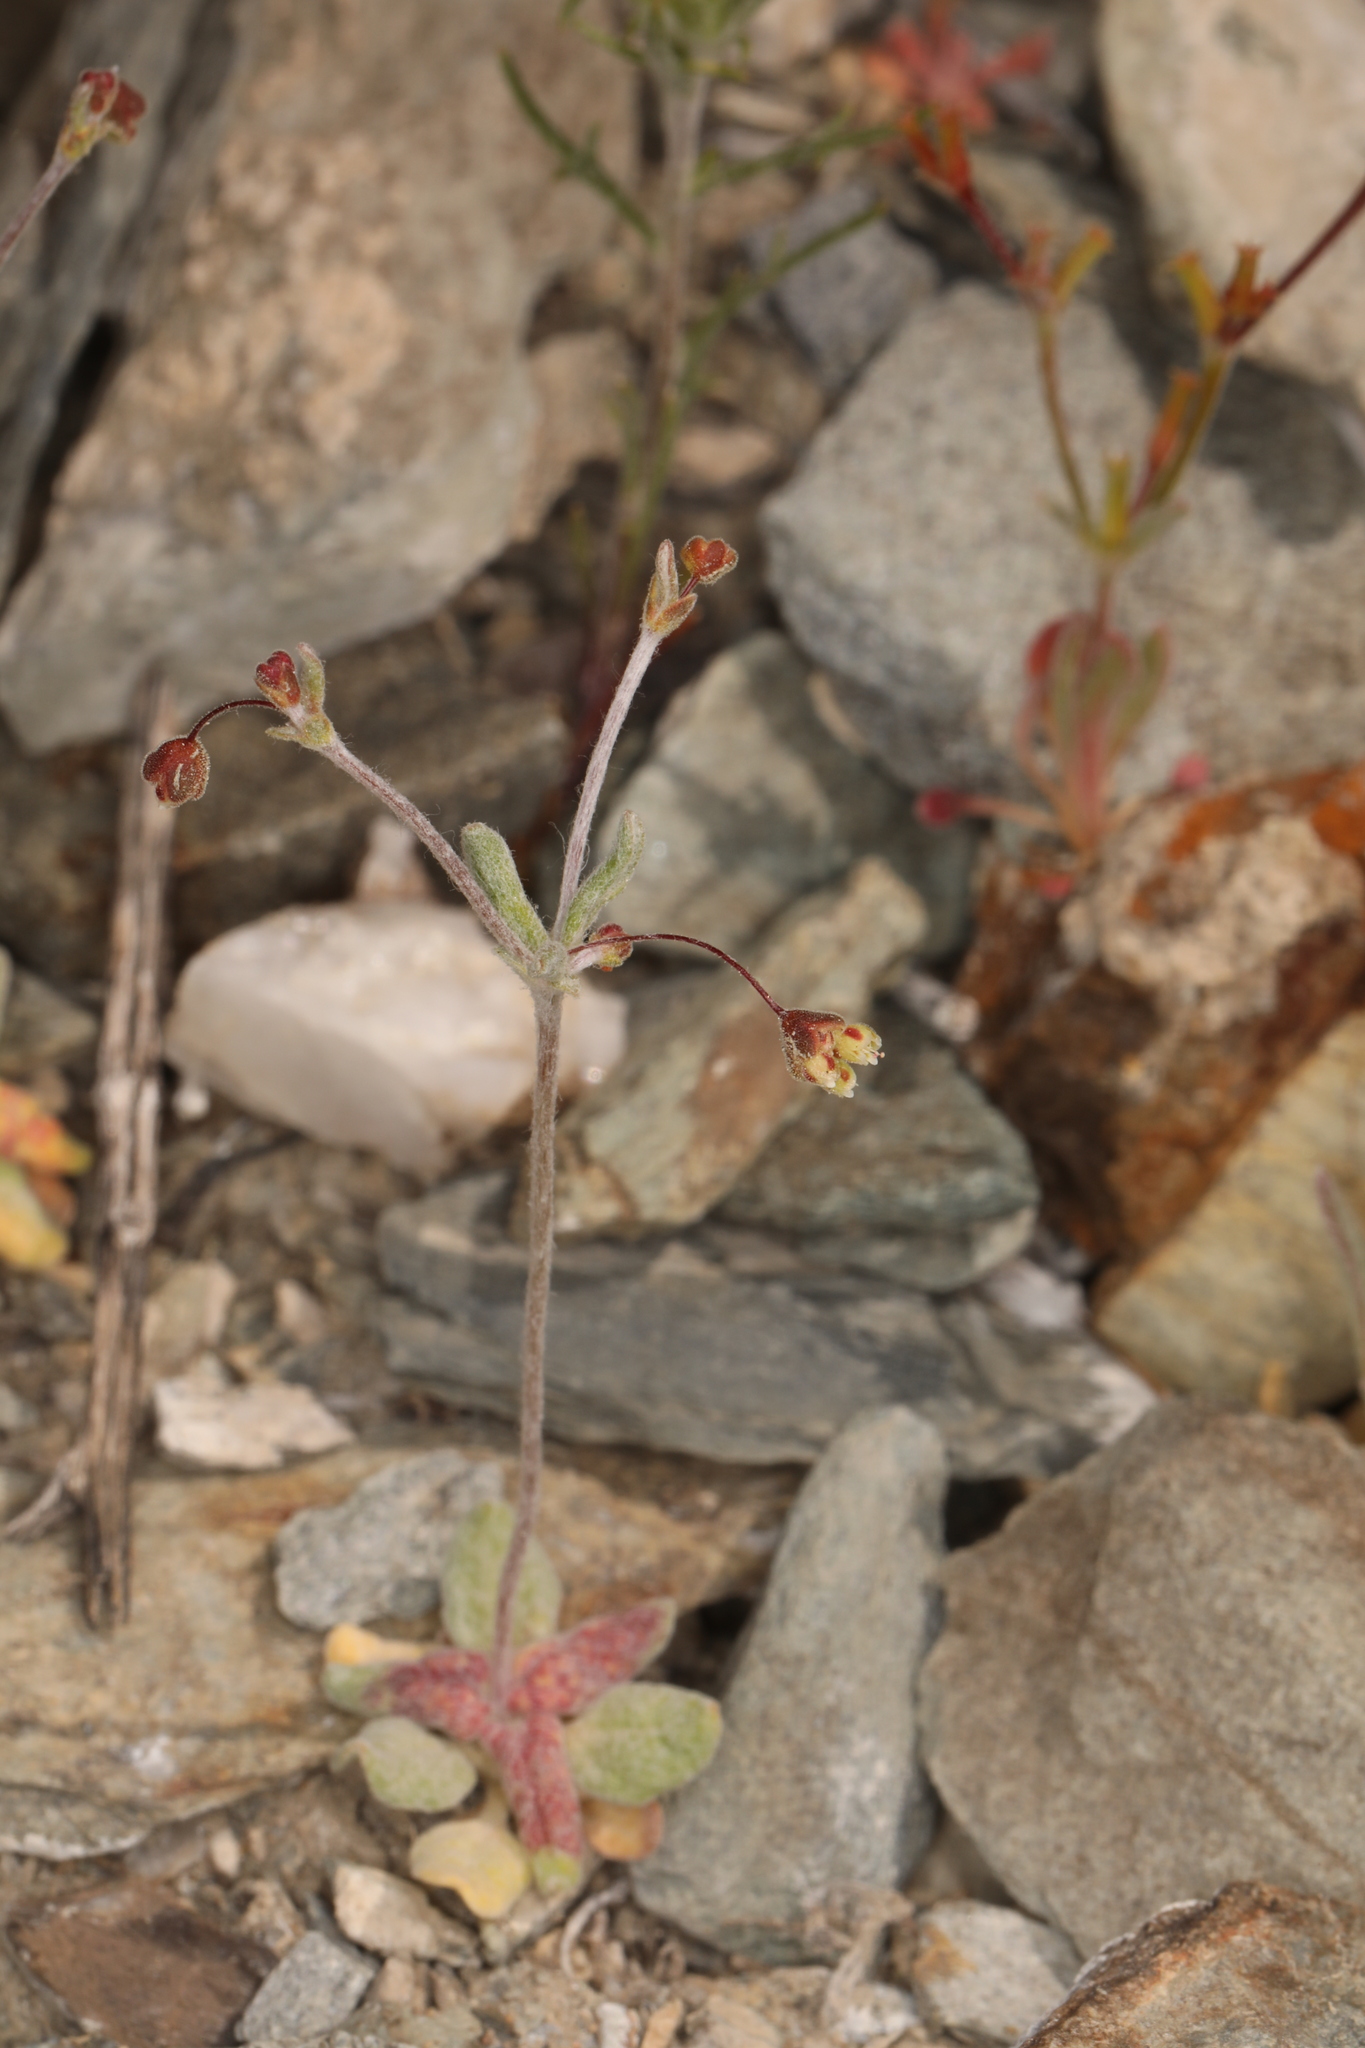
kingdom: Plantae
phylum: Tracheophyta
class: Magnoliopsida
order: Caryophyllales
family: Polygonaceae
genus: Eriogonum
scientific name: Eriogonum maculatum
